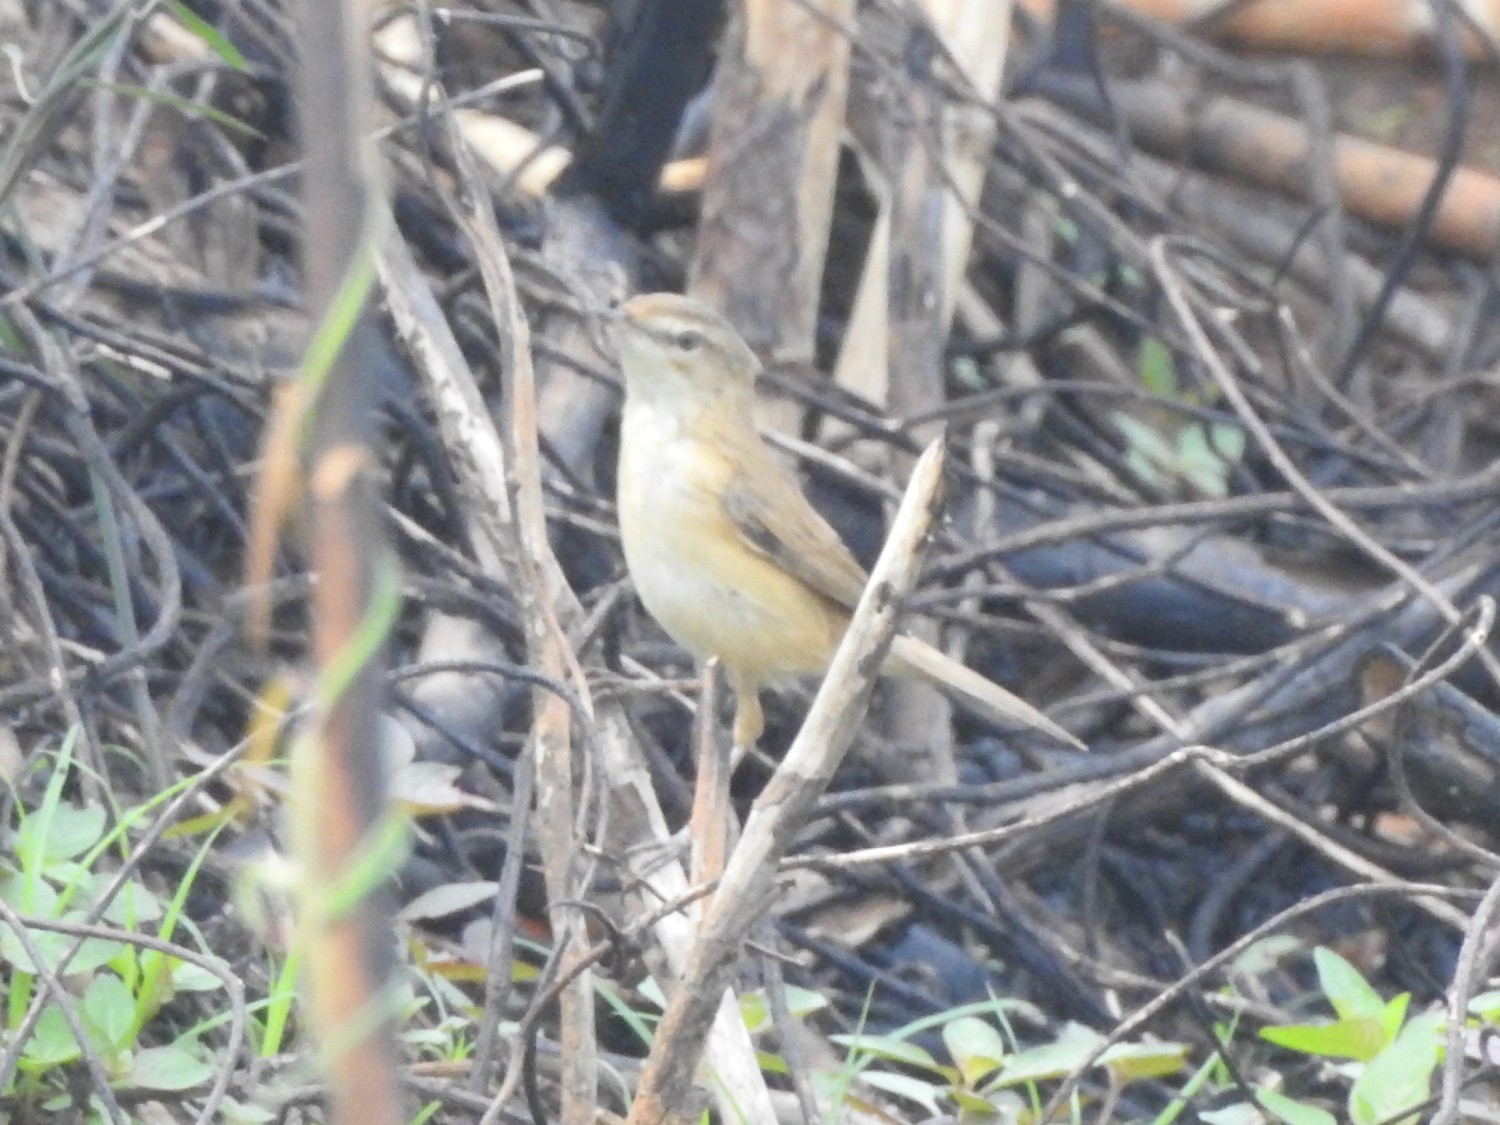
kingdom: Animalia
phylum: Chordata
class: Aves
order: Passeriformes
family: Acrocephalidae
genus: Acrocephalus
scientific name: Acrocephalus agricola
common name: Paddyfield warbler
